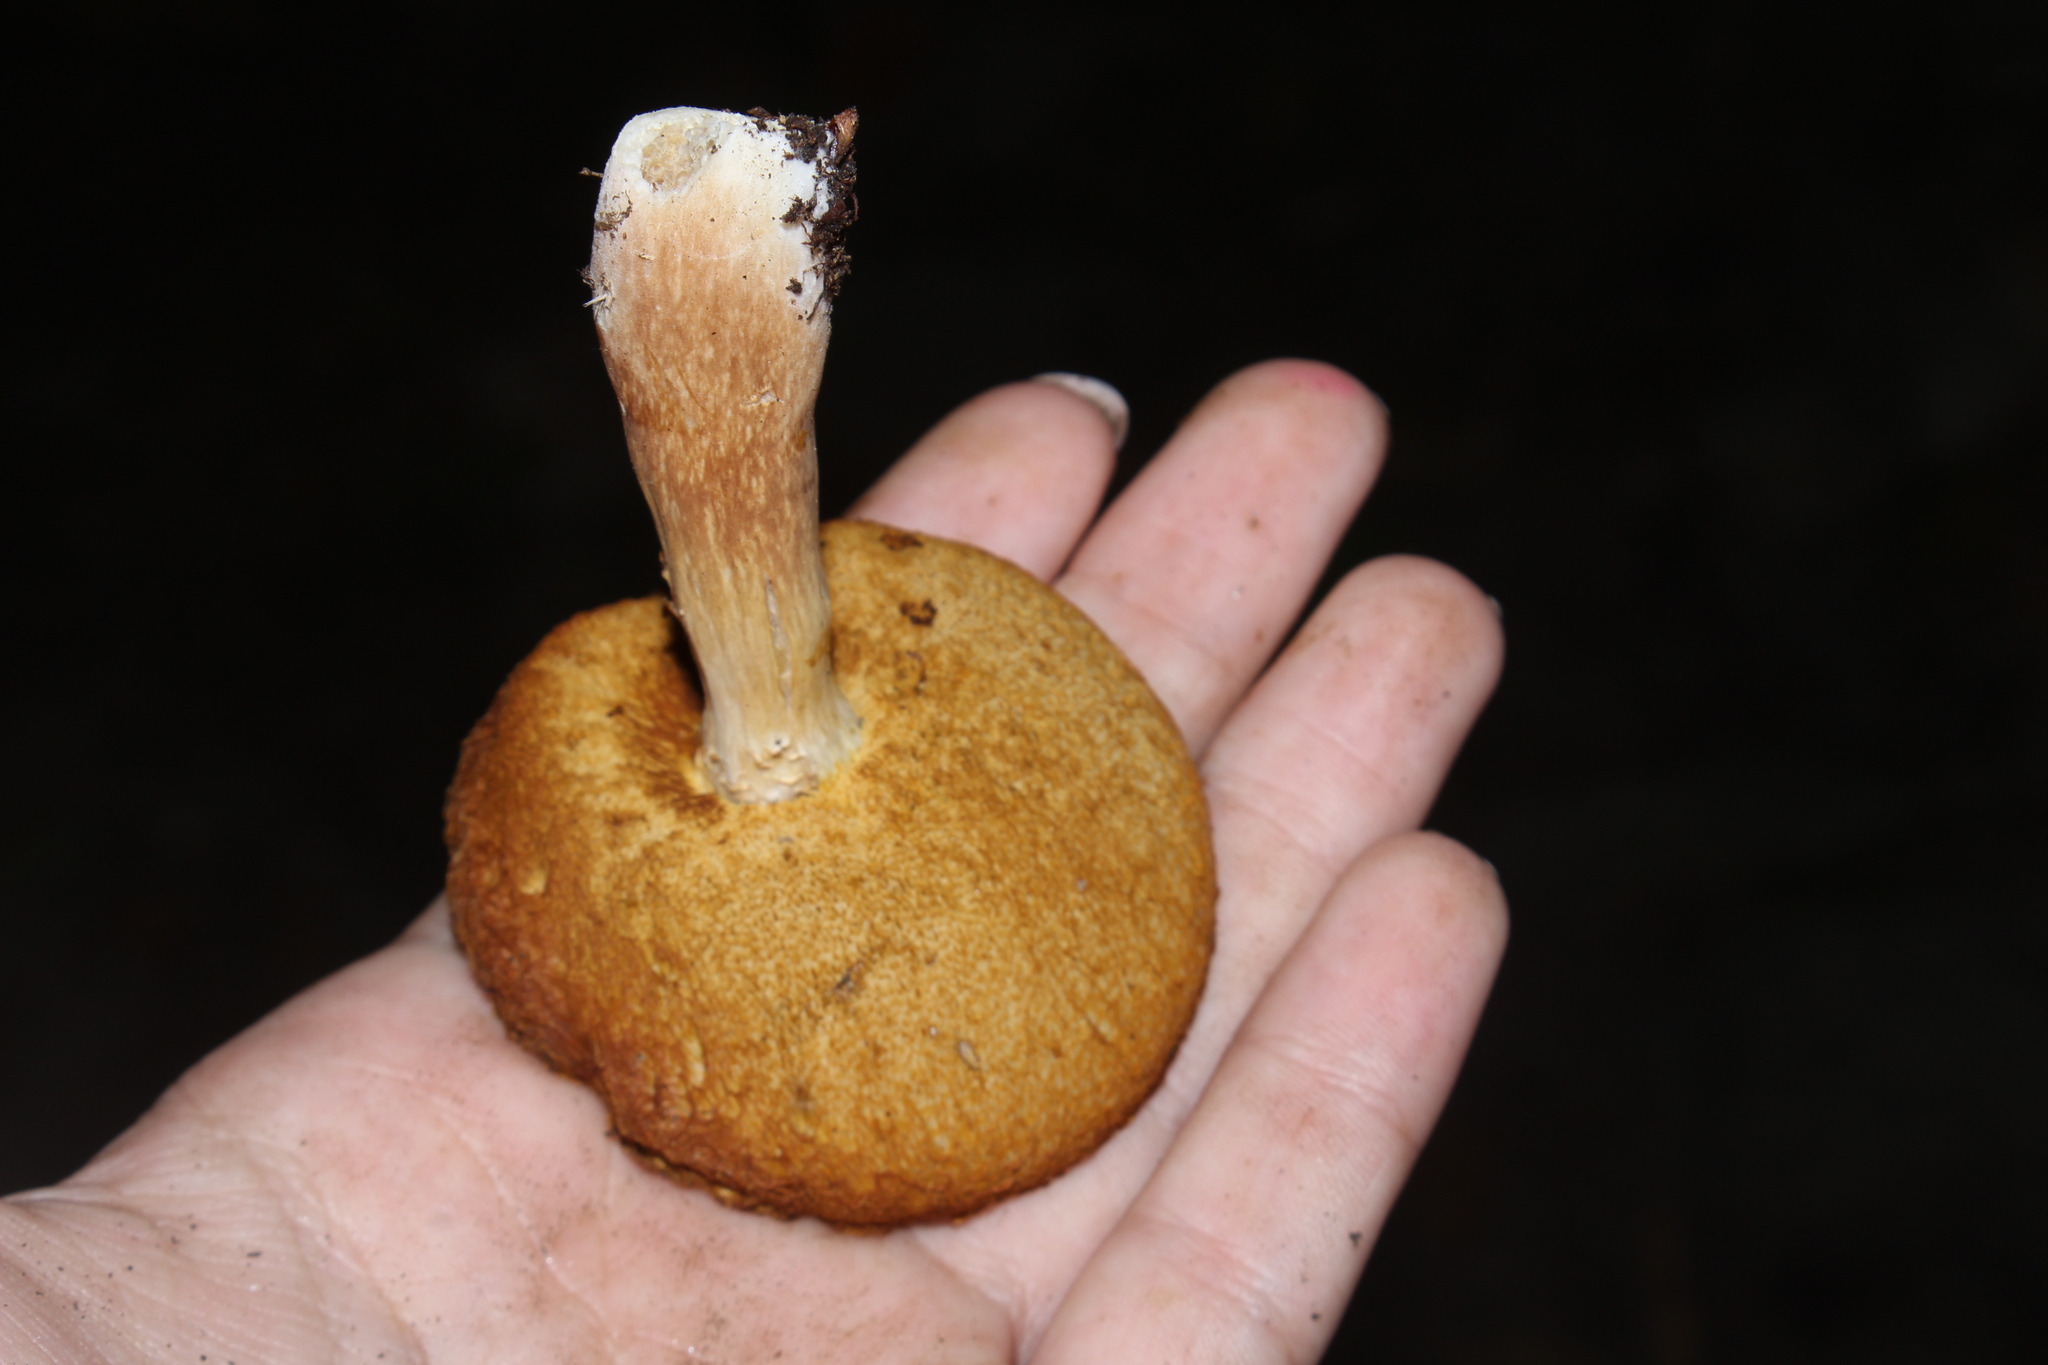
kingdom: Fungi
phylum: Basidiomycota
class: Agaricomycetes
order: Boletales
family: Boletaceae
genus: Xanthoconium
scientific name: Xanthoconium affine
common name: Spotted bolete
